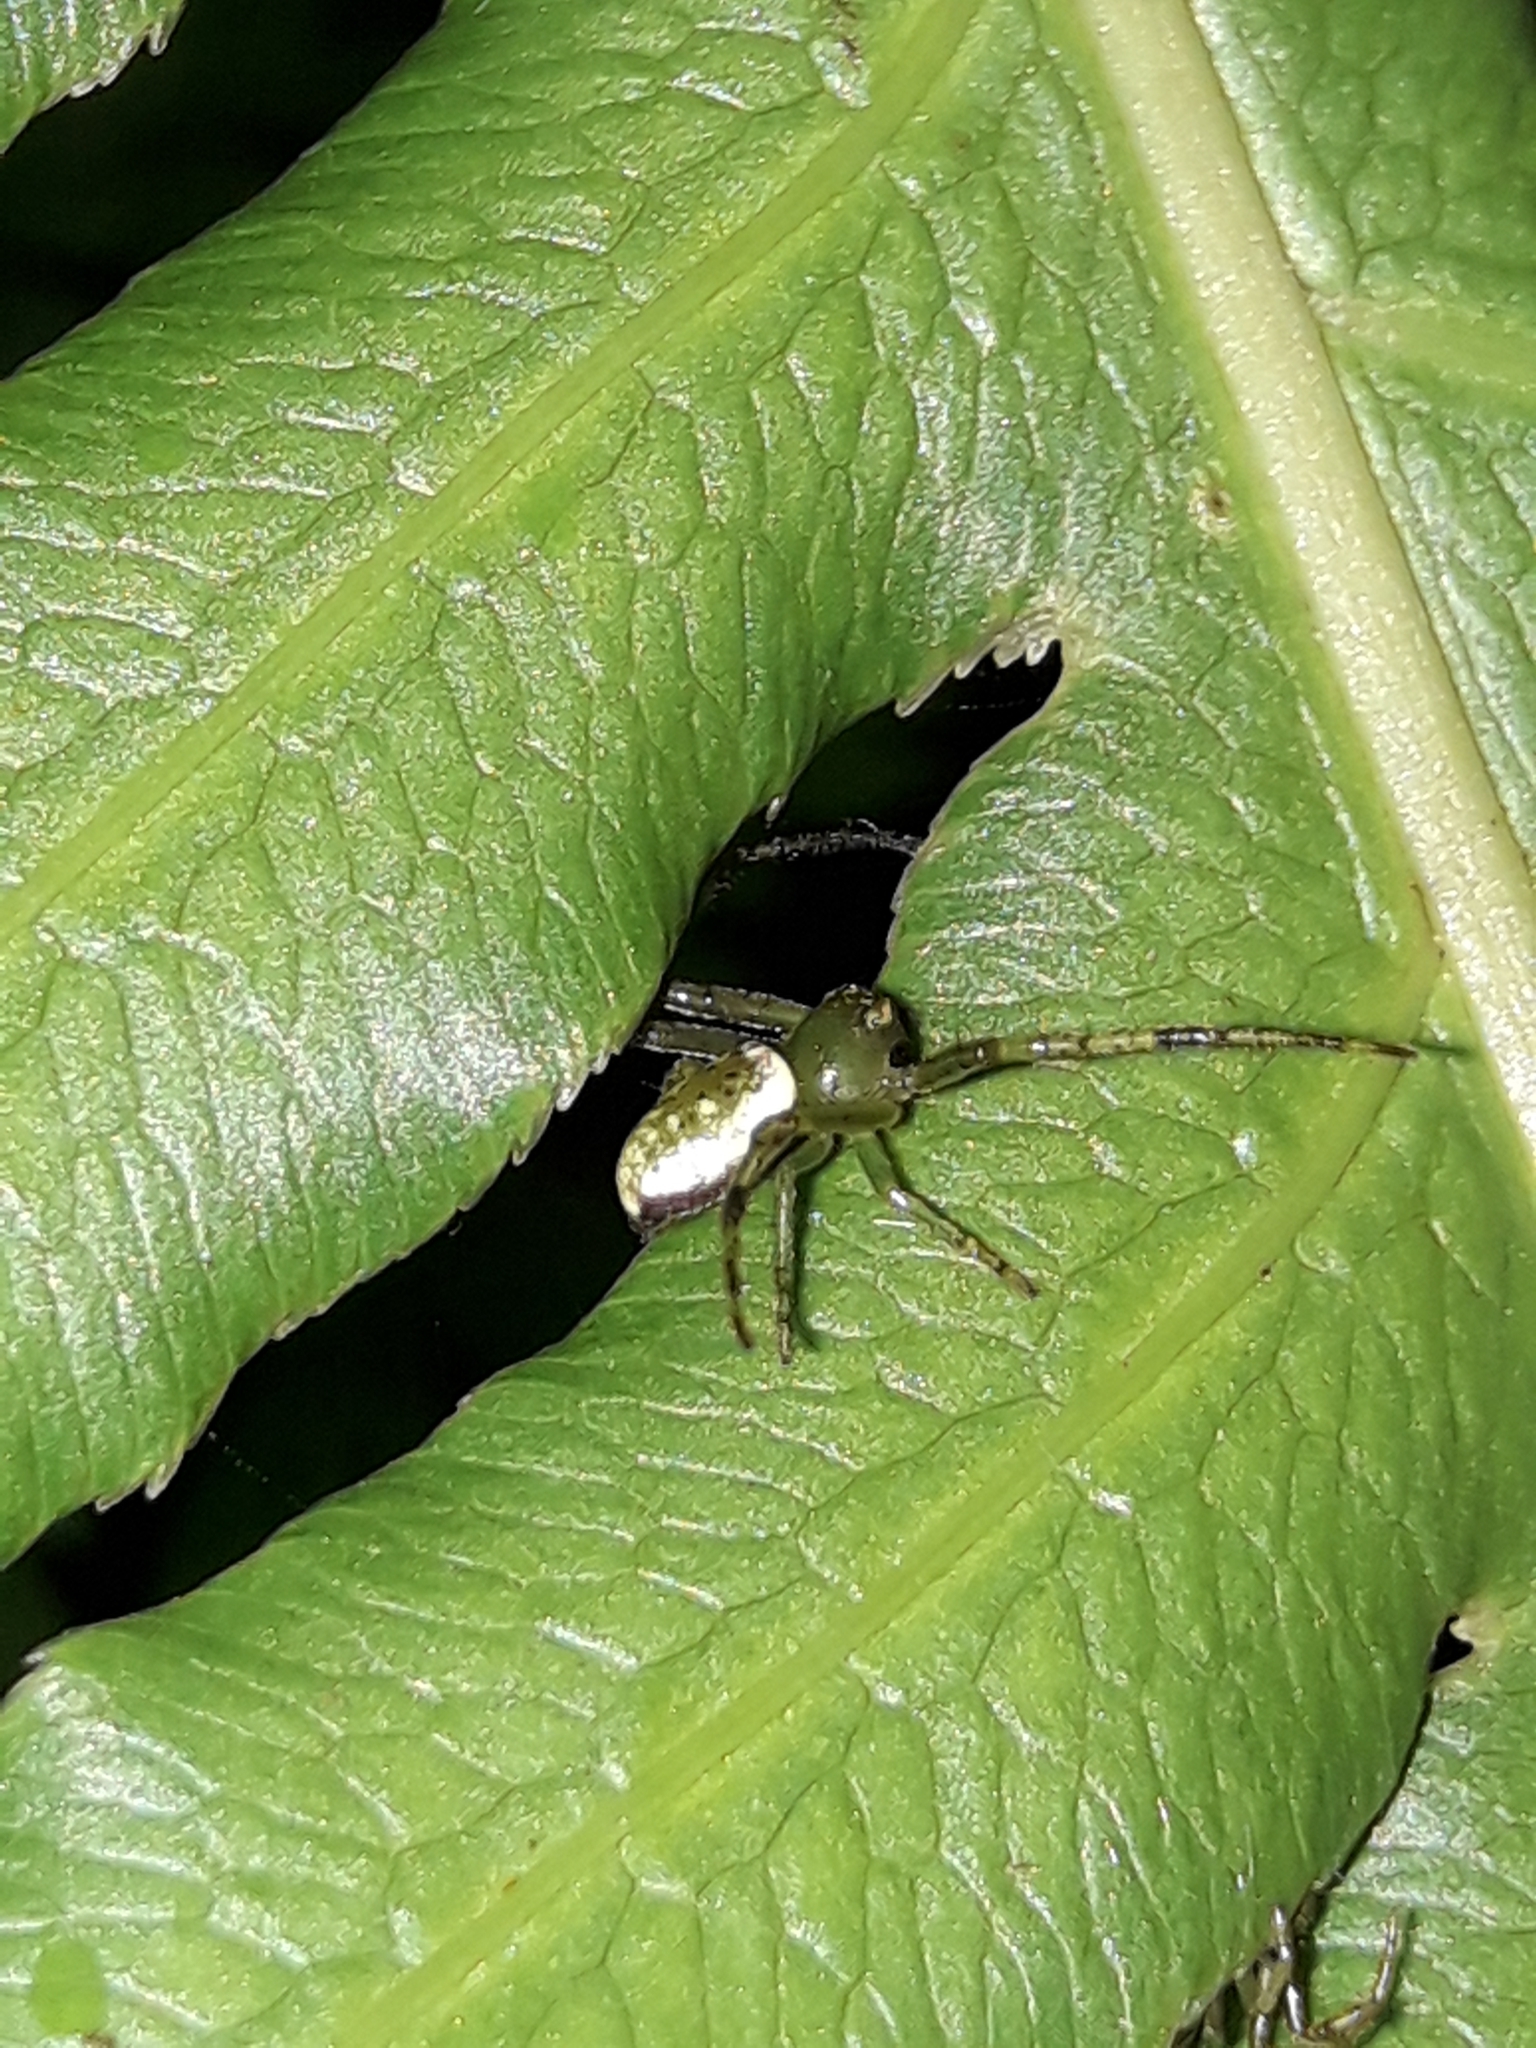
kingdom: Animalia
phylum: Arthropoda
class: Arachnida
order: Araneae
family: Thomisidae
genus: Diaea
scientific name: Diaea ambara
